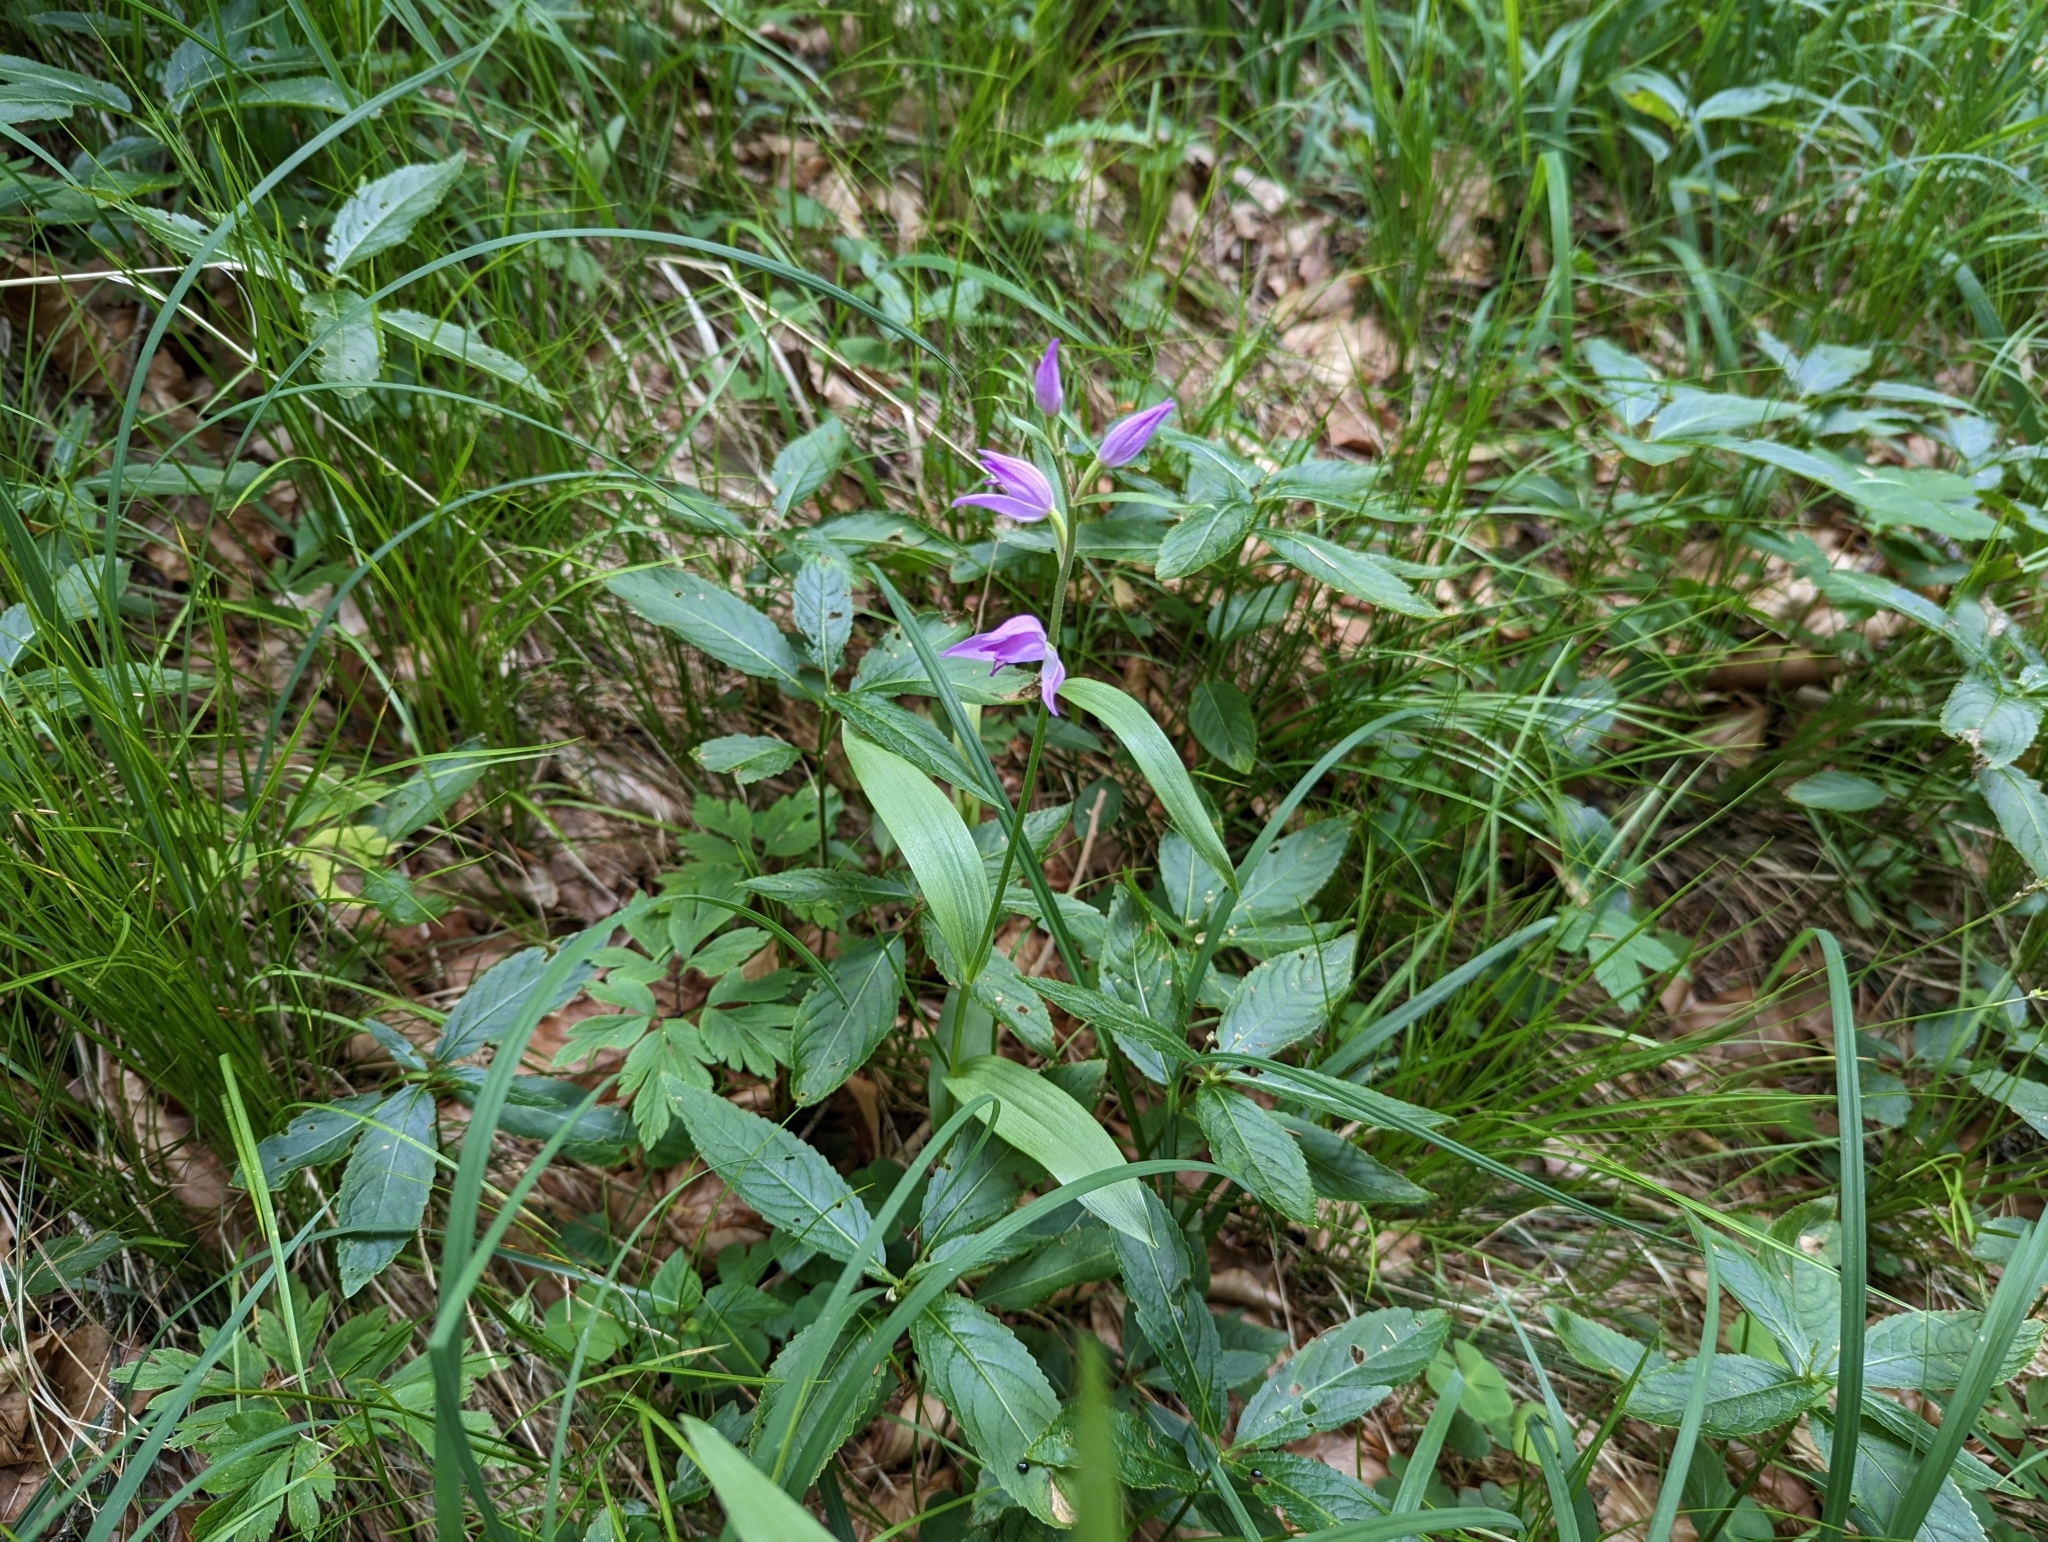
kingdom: Plantae
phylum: Tracheophyta
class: Liliopsida
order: Asparagales
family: Orchidaceae
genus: Cephalanthera
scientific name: Cephalanthera rubra
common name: Red helleborine
